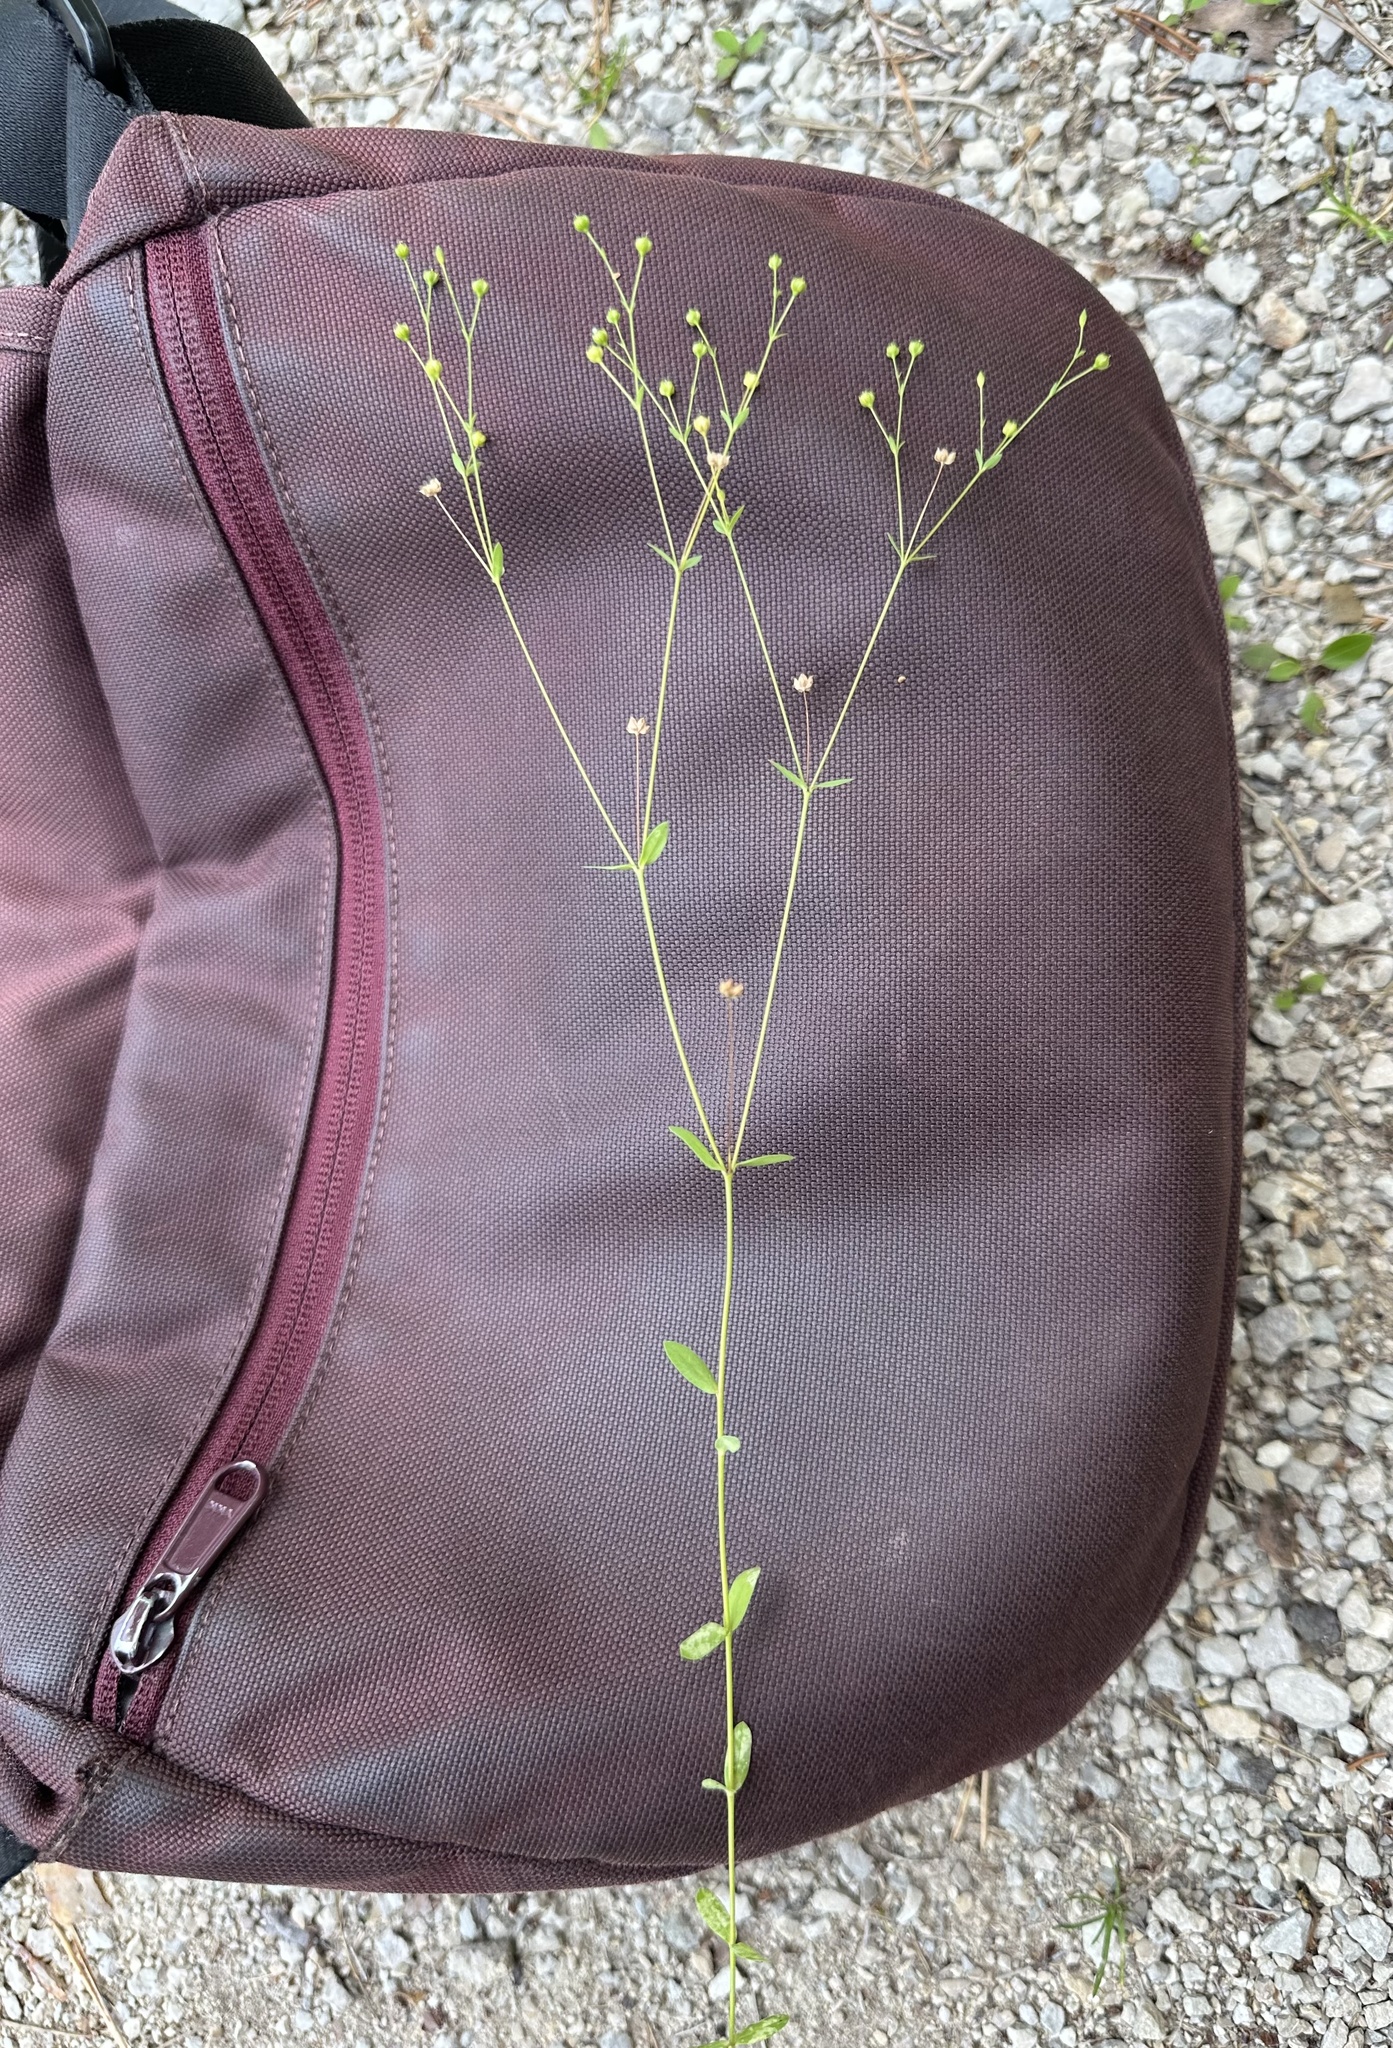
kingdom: Plantae
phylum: Tracheophyta
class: Magnoliopsida
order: Malpighiales
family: Linaceae
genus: Linum
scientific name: Linum catharticum
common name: Fairy flax
